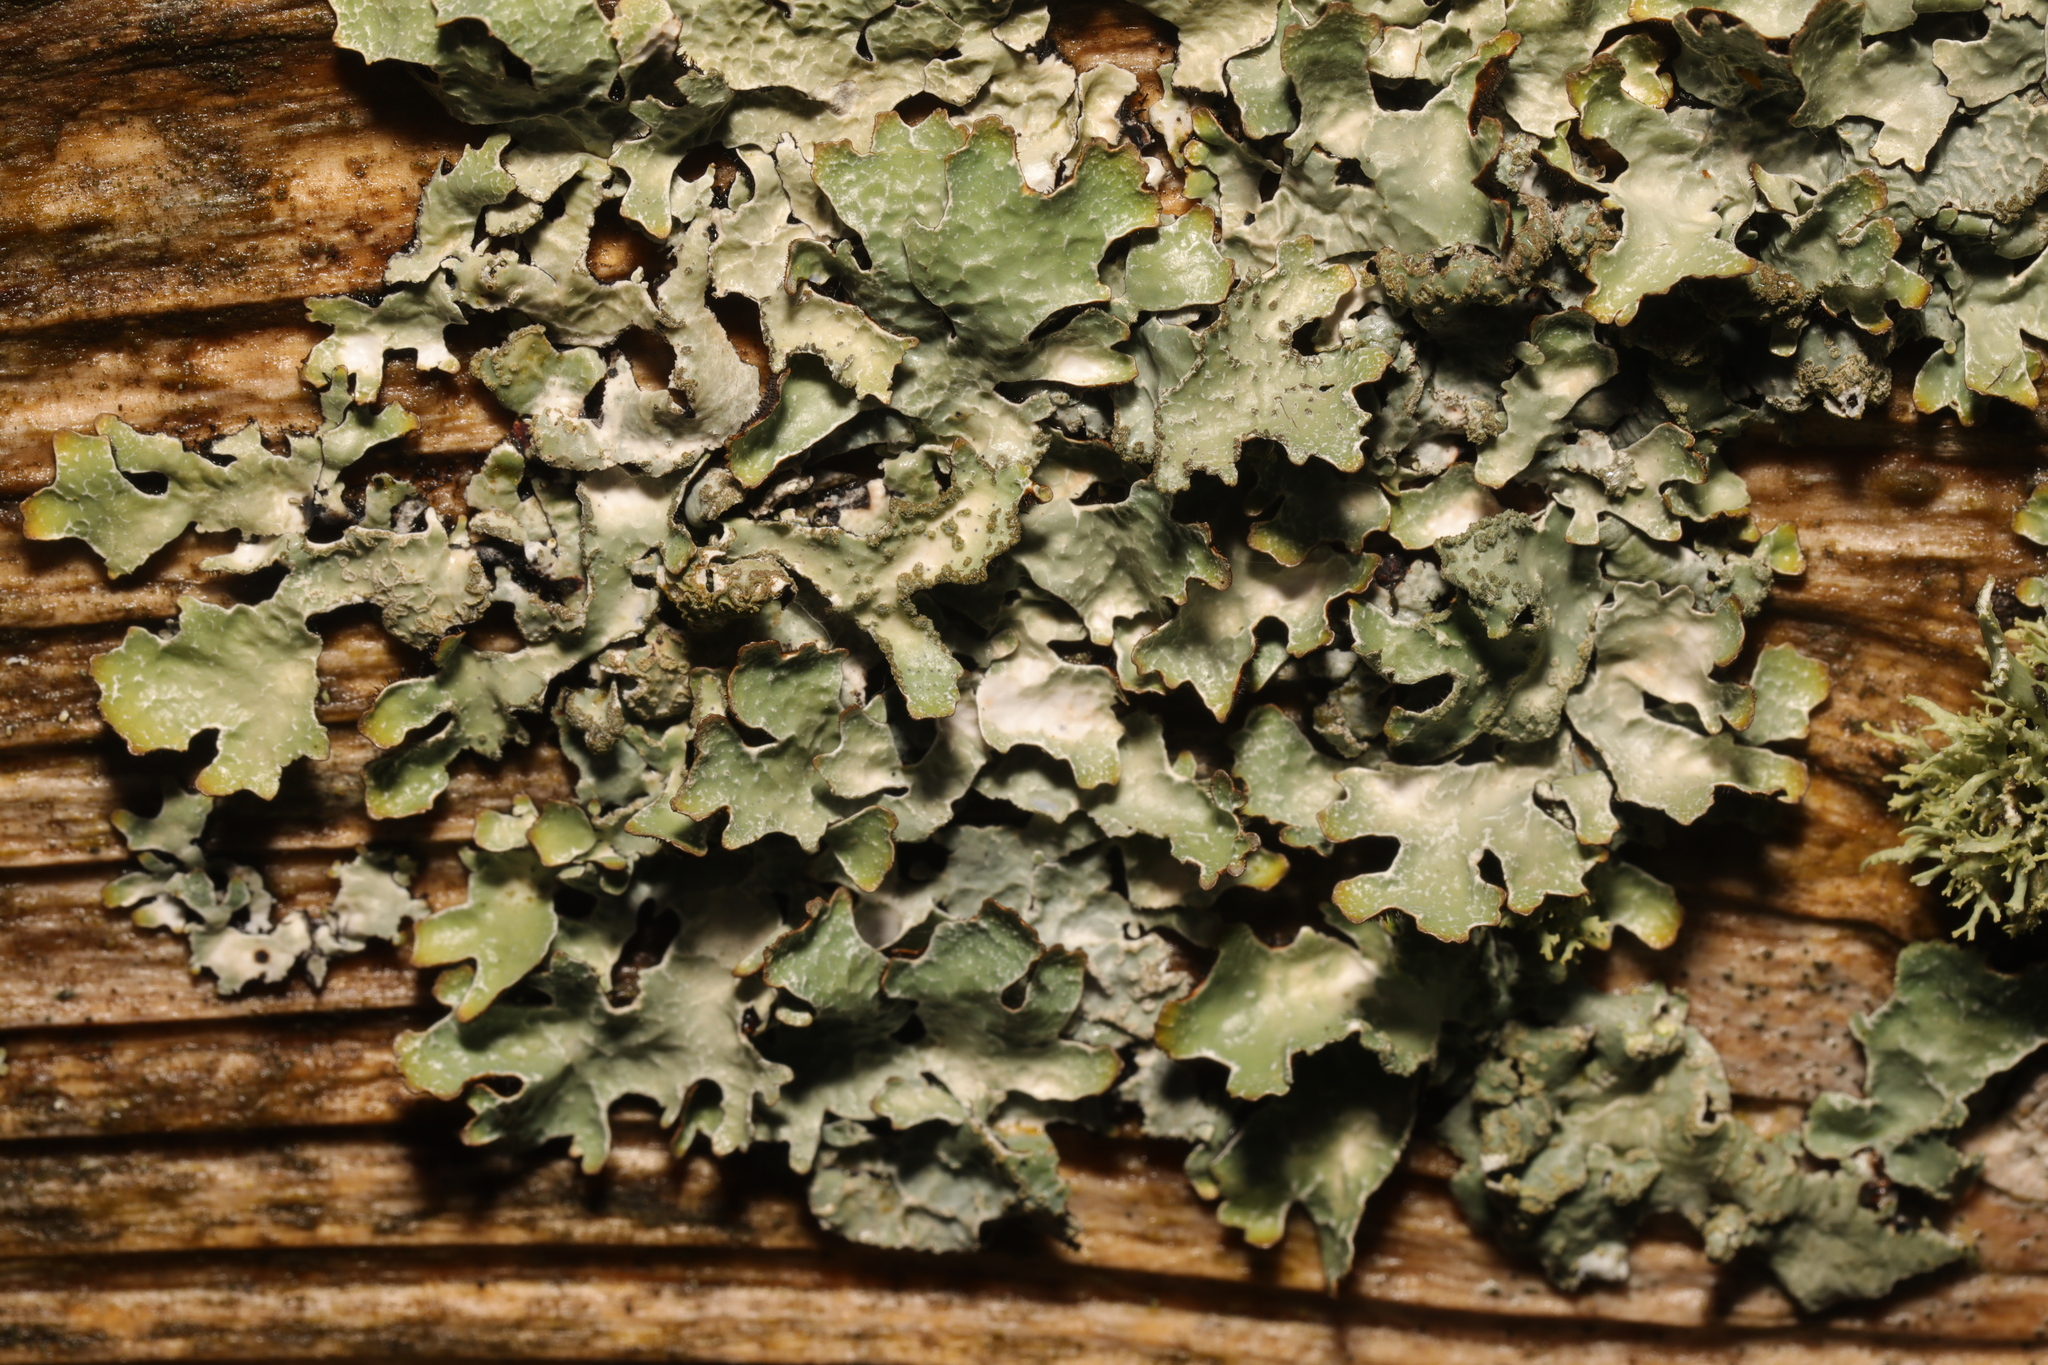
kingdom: Fungi
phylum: Ascomycota
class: Lecanoromycetes
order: Lecanorales
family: Parmeliaceae
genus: Parmelia
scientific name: Parmelia sulcata
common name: Netted shield lichen
